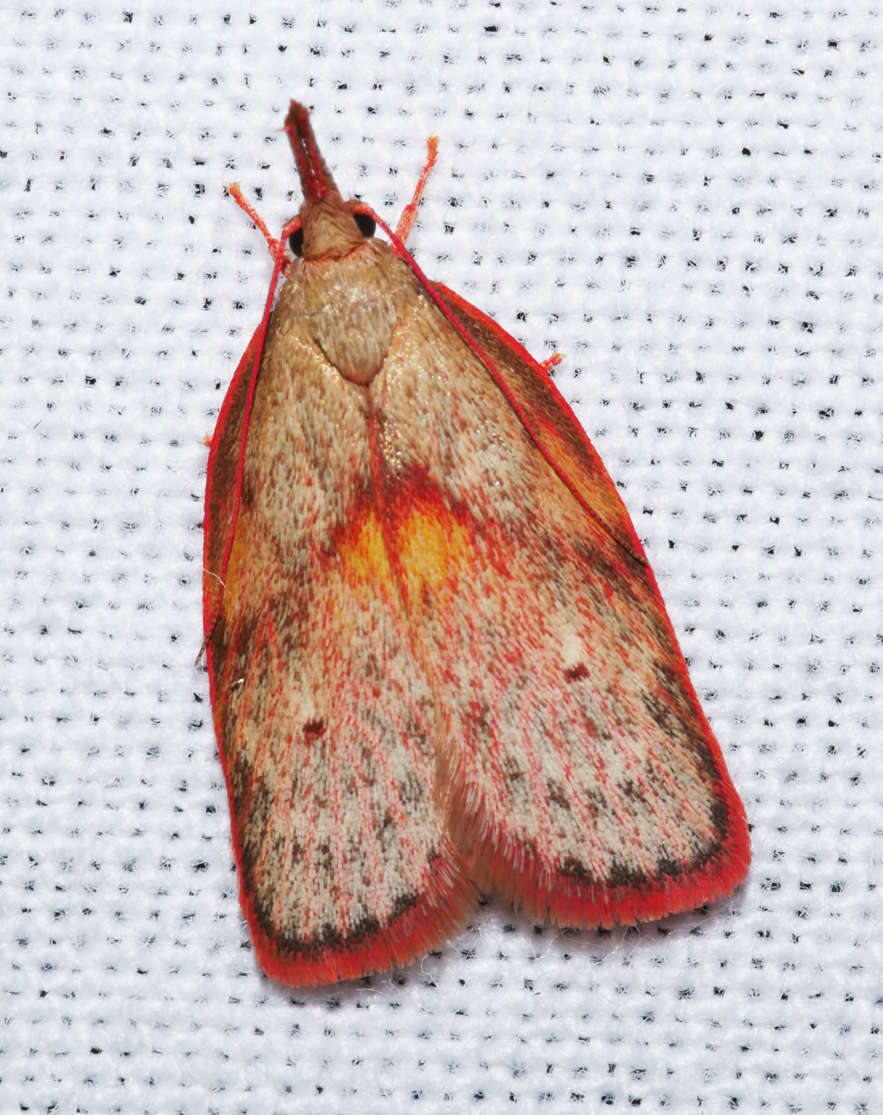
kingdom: Animalia
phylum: Arthropoda
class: Insecta
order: Lepidoptera
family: Depressariidae
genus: Enchocrates
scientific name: Enchocrates glaucopis
